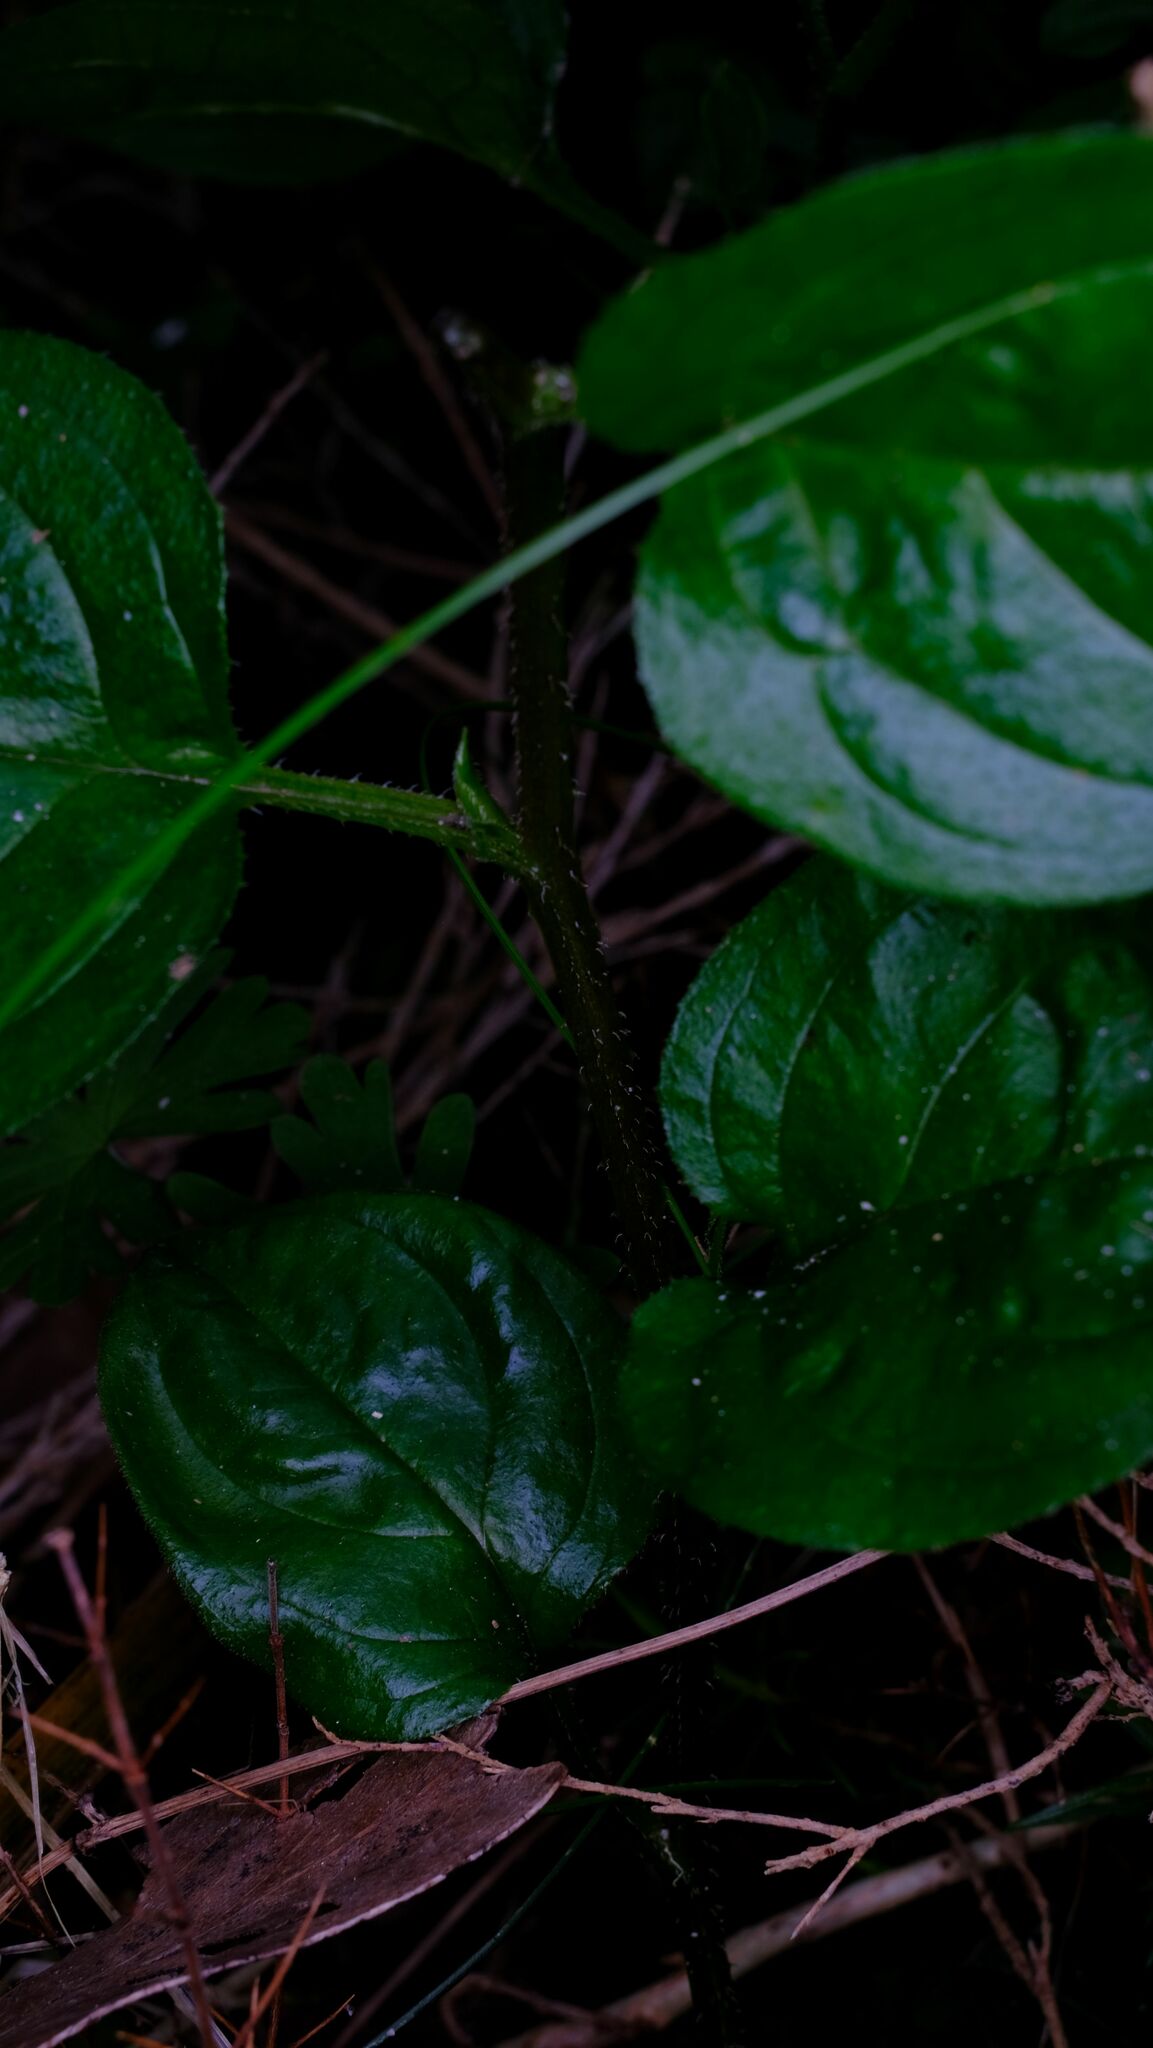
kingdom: Plantae
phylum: Tracheophyta
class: Magnoliopsida
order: Boraginales
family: Boraginaceae
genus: Hackelia
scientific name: Hackelia latifolia
